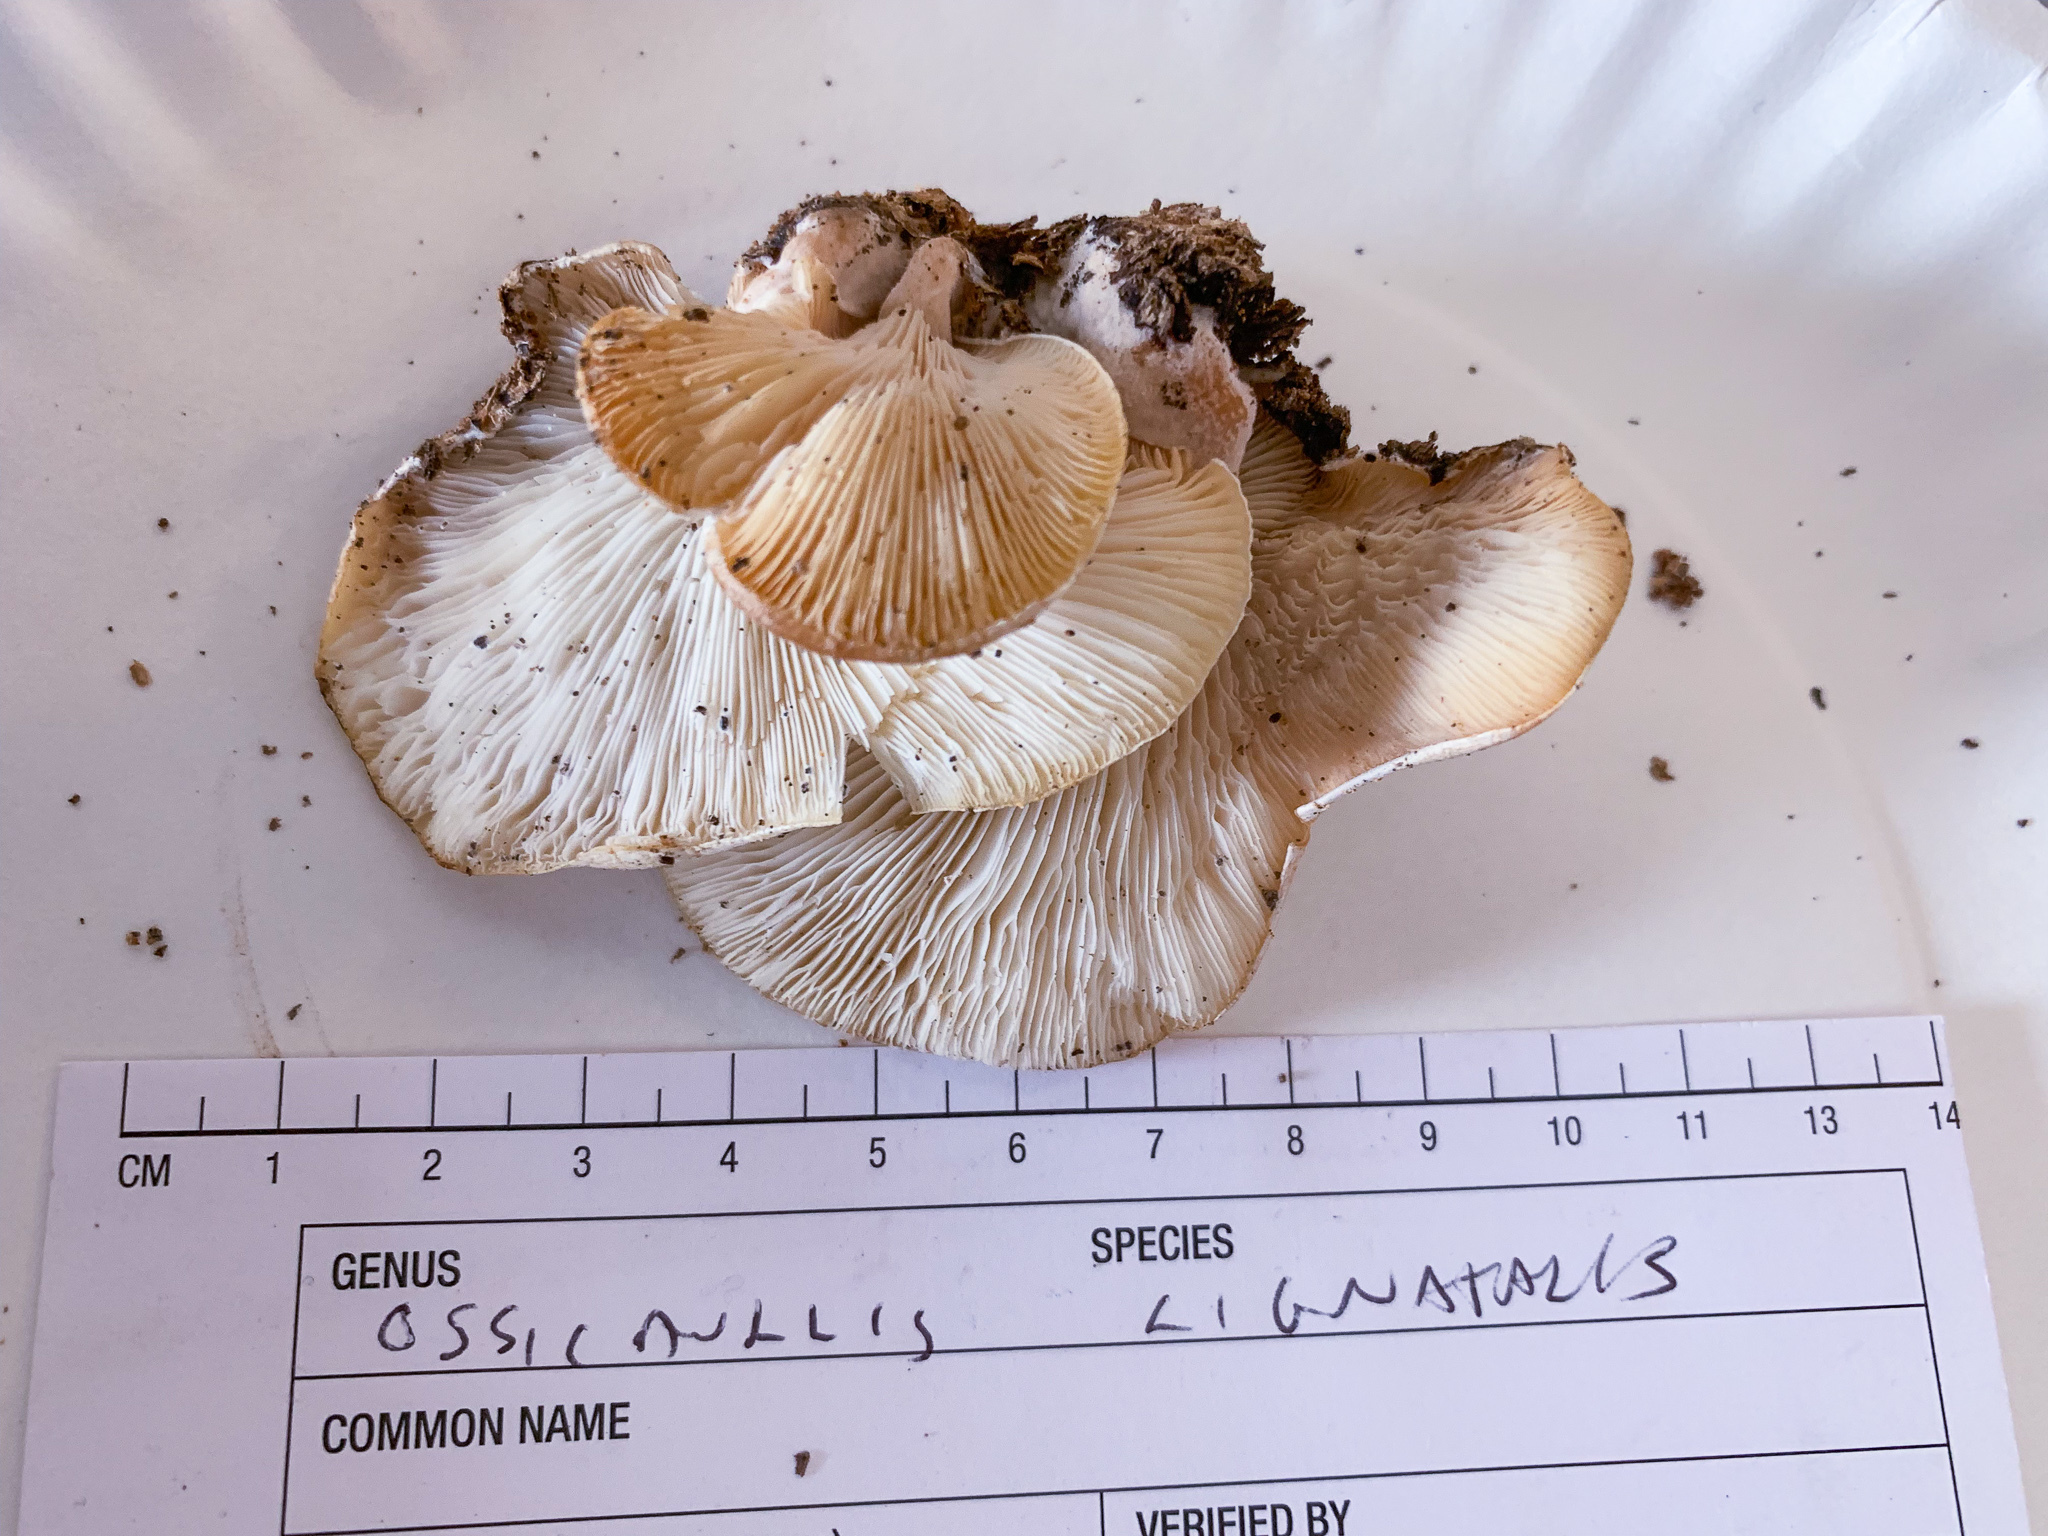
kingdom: Fungi
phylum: Basidiomycota
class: Agaricomycetes
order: Agaricales
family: Lyophyllaceae
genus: Ossicaulis
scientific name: Ossicaulis lignatilis
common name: Mealy oyster
